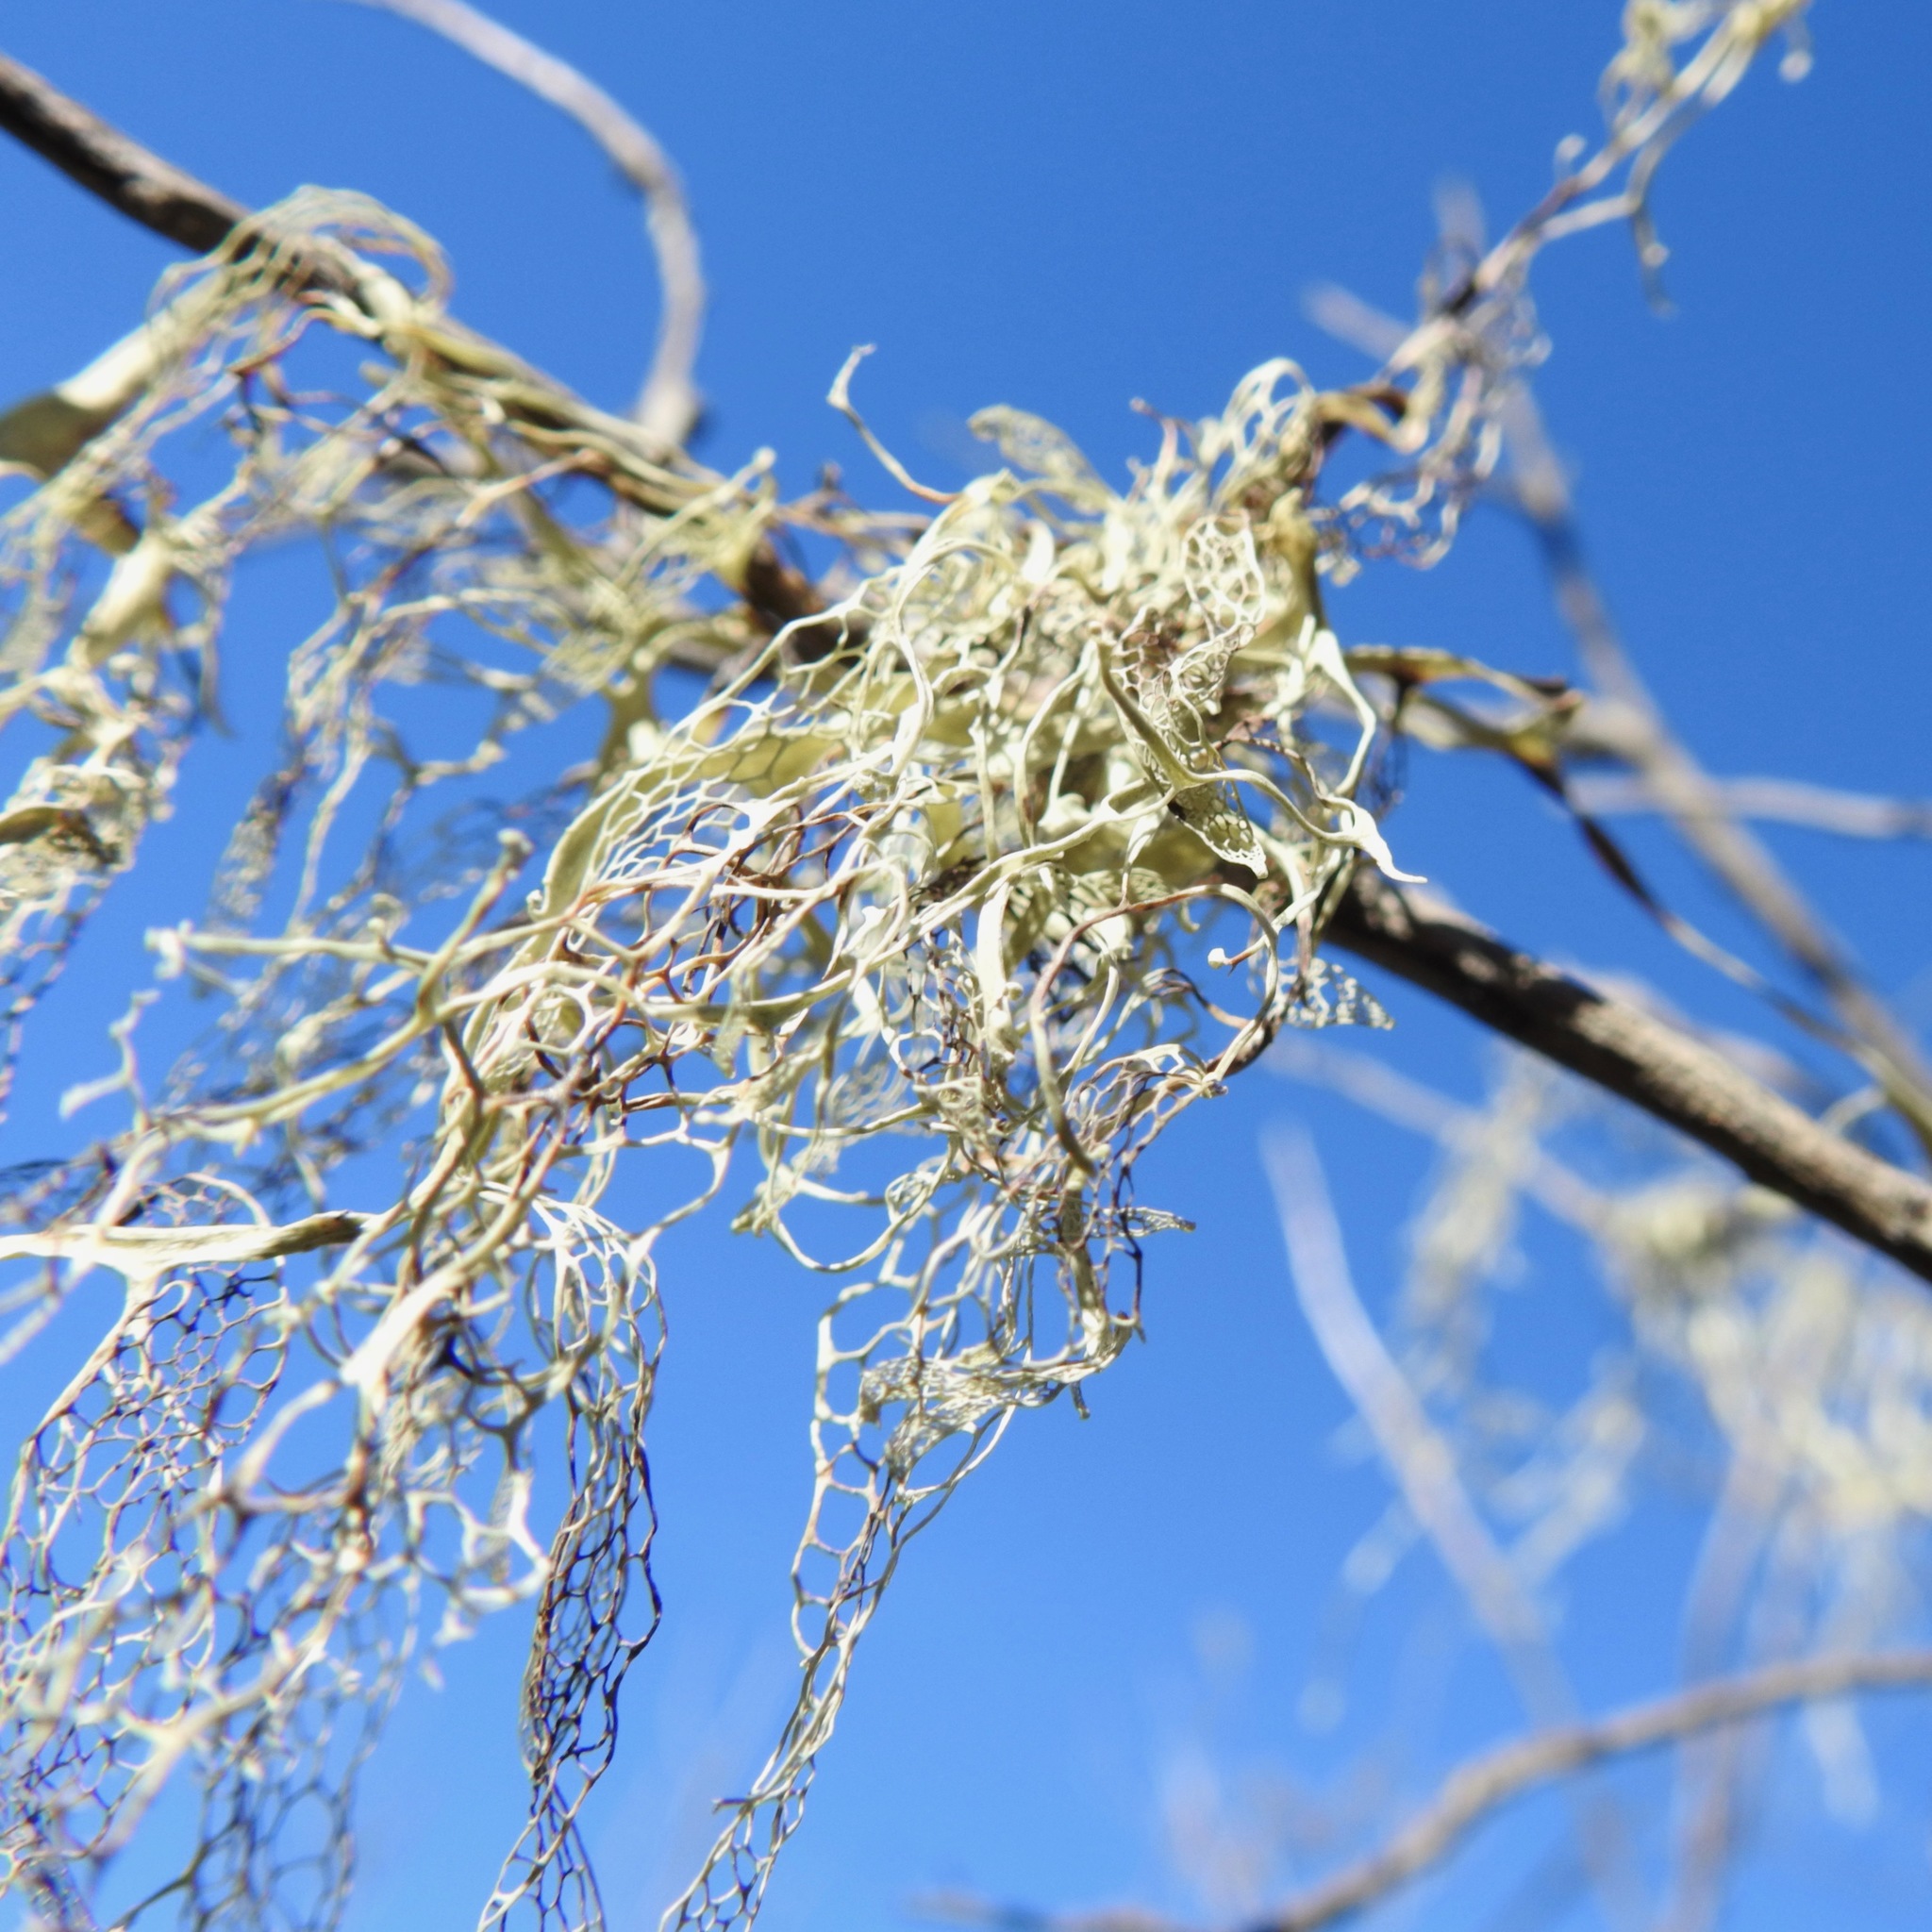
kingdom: Fungi
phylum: Ascomycota
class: Lecanoromycetes
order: Lecanorales
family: Ramalinaceae
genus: Ramalina
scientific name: Ramalina menziesii
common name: Lace lichen
